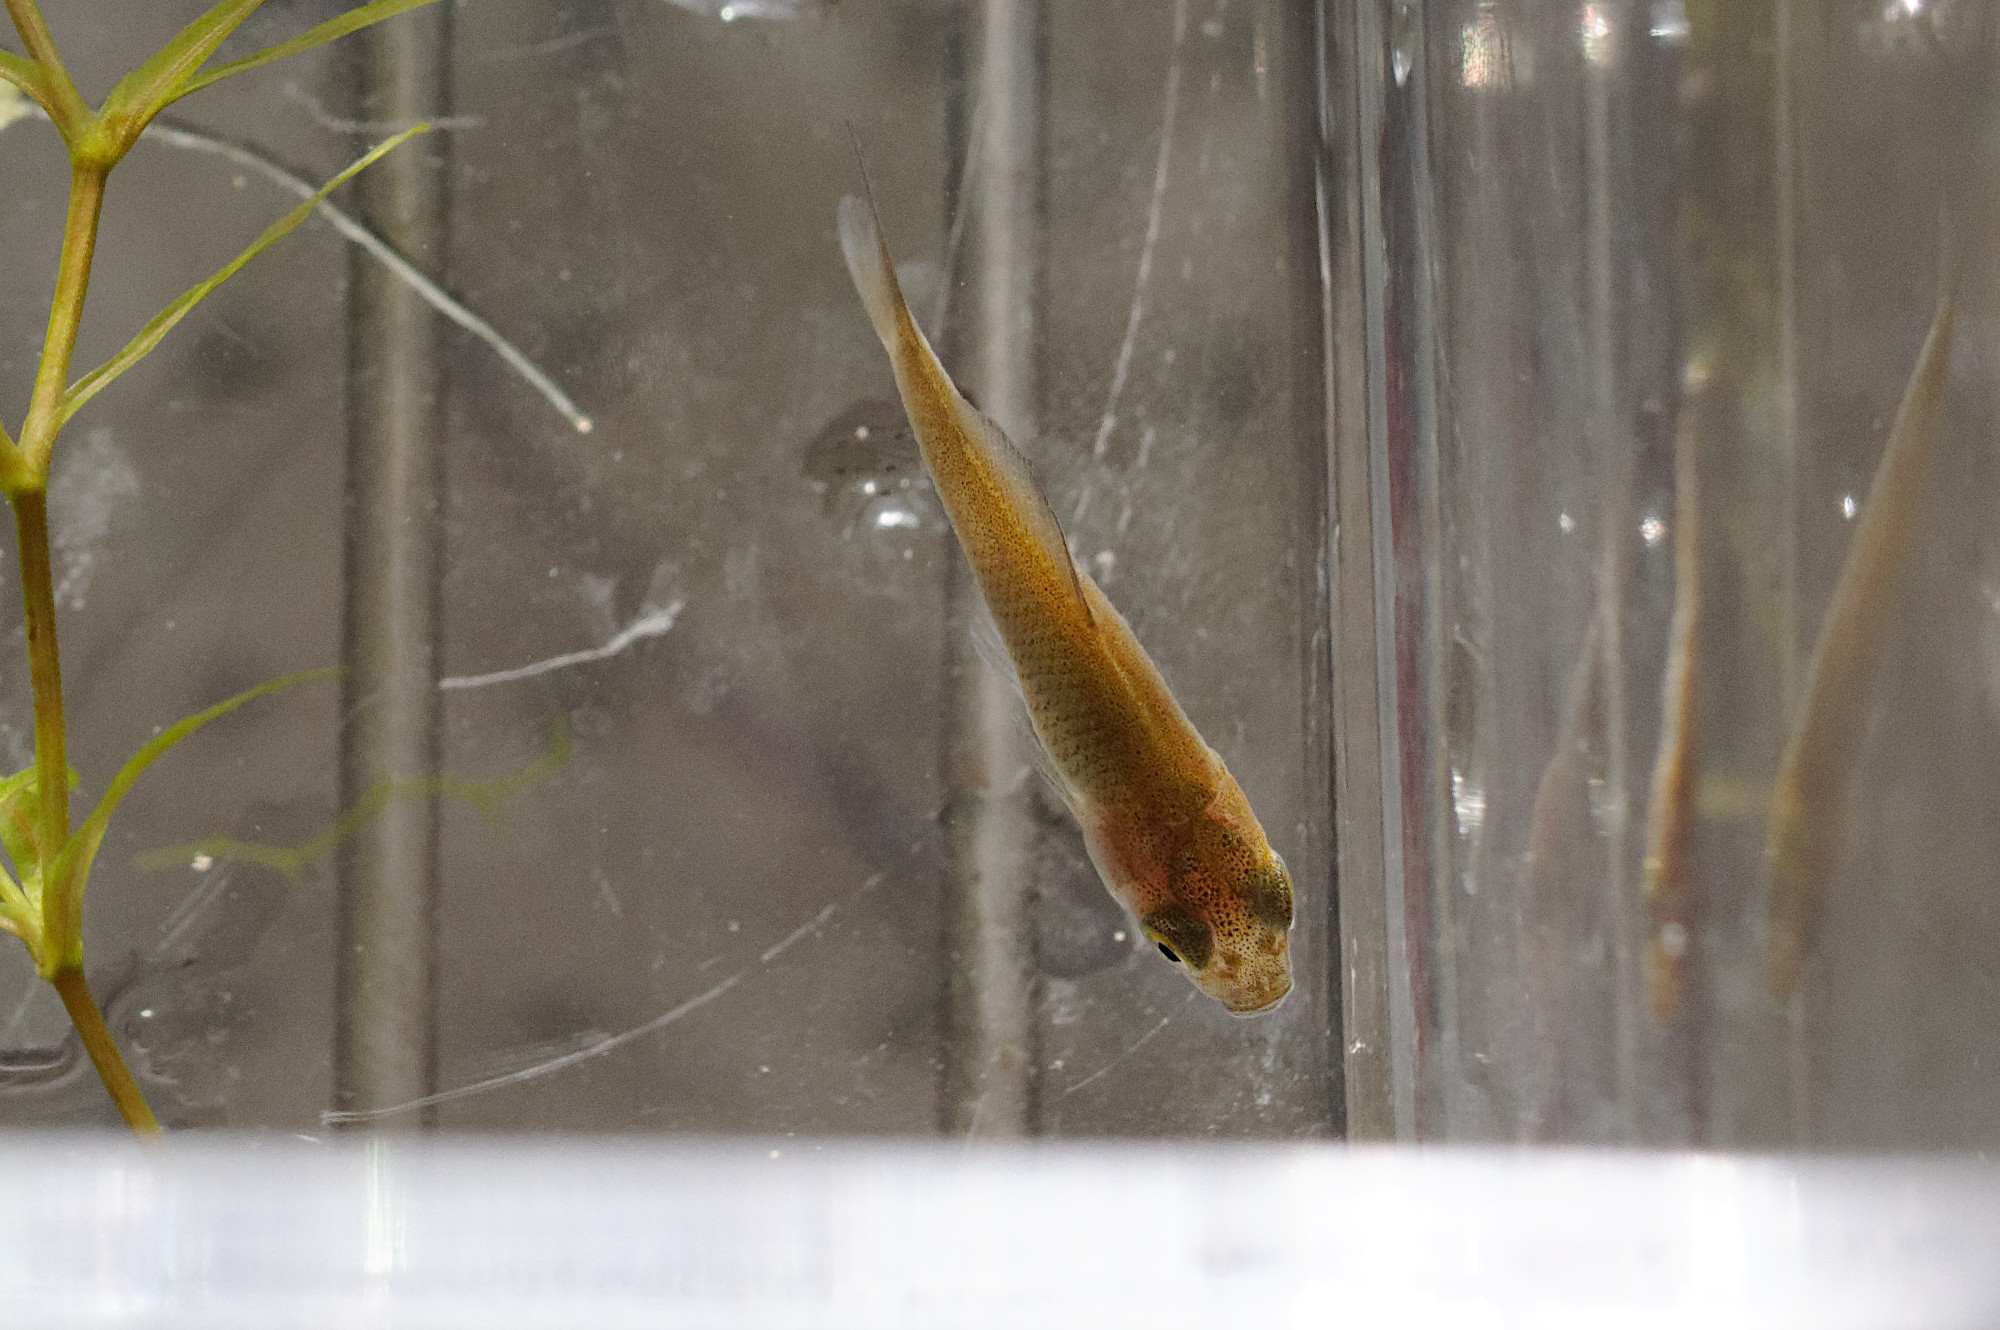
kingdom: Animalia
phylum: Chordata
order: Cypriniformes
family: Cyprinidae
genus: Carassius
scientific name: Carassius auratus
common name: Goldfish
